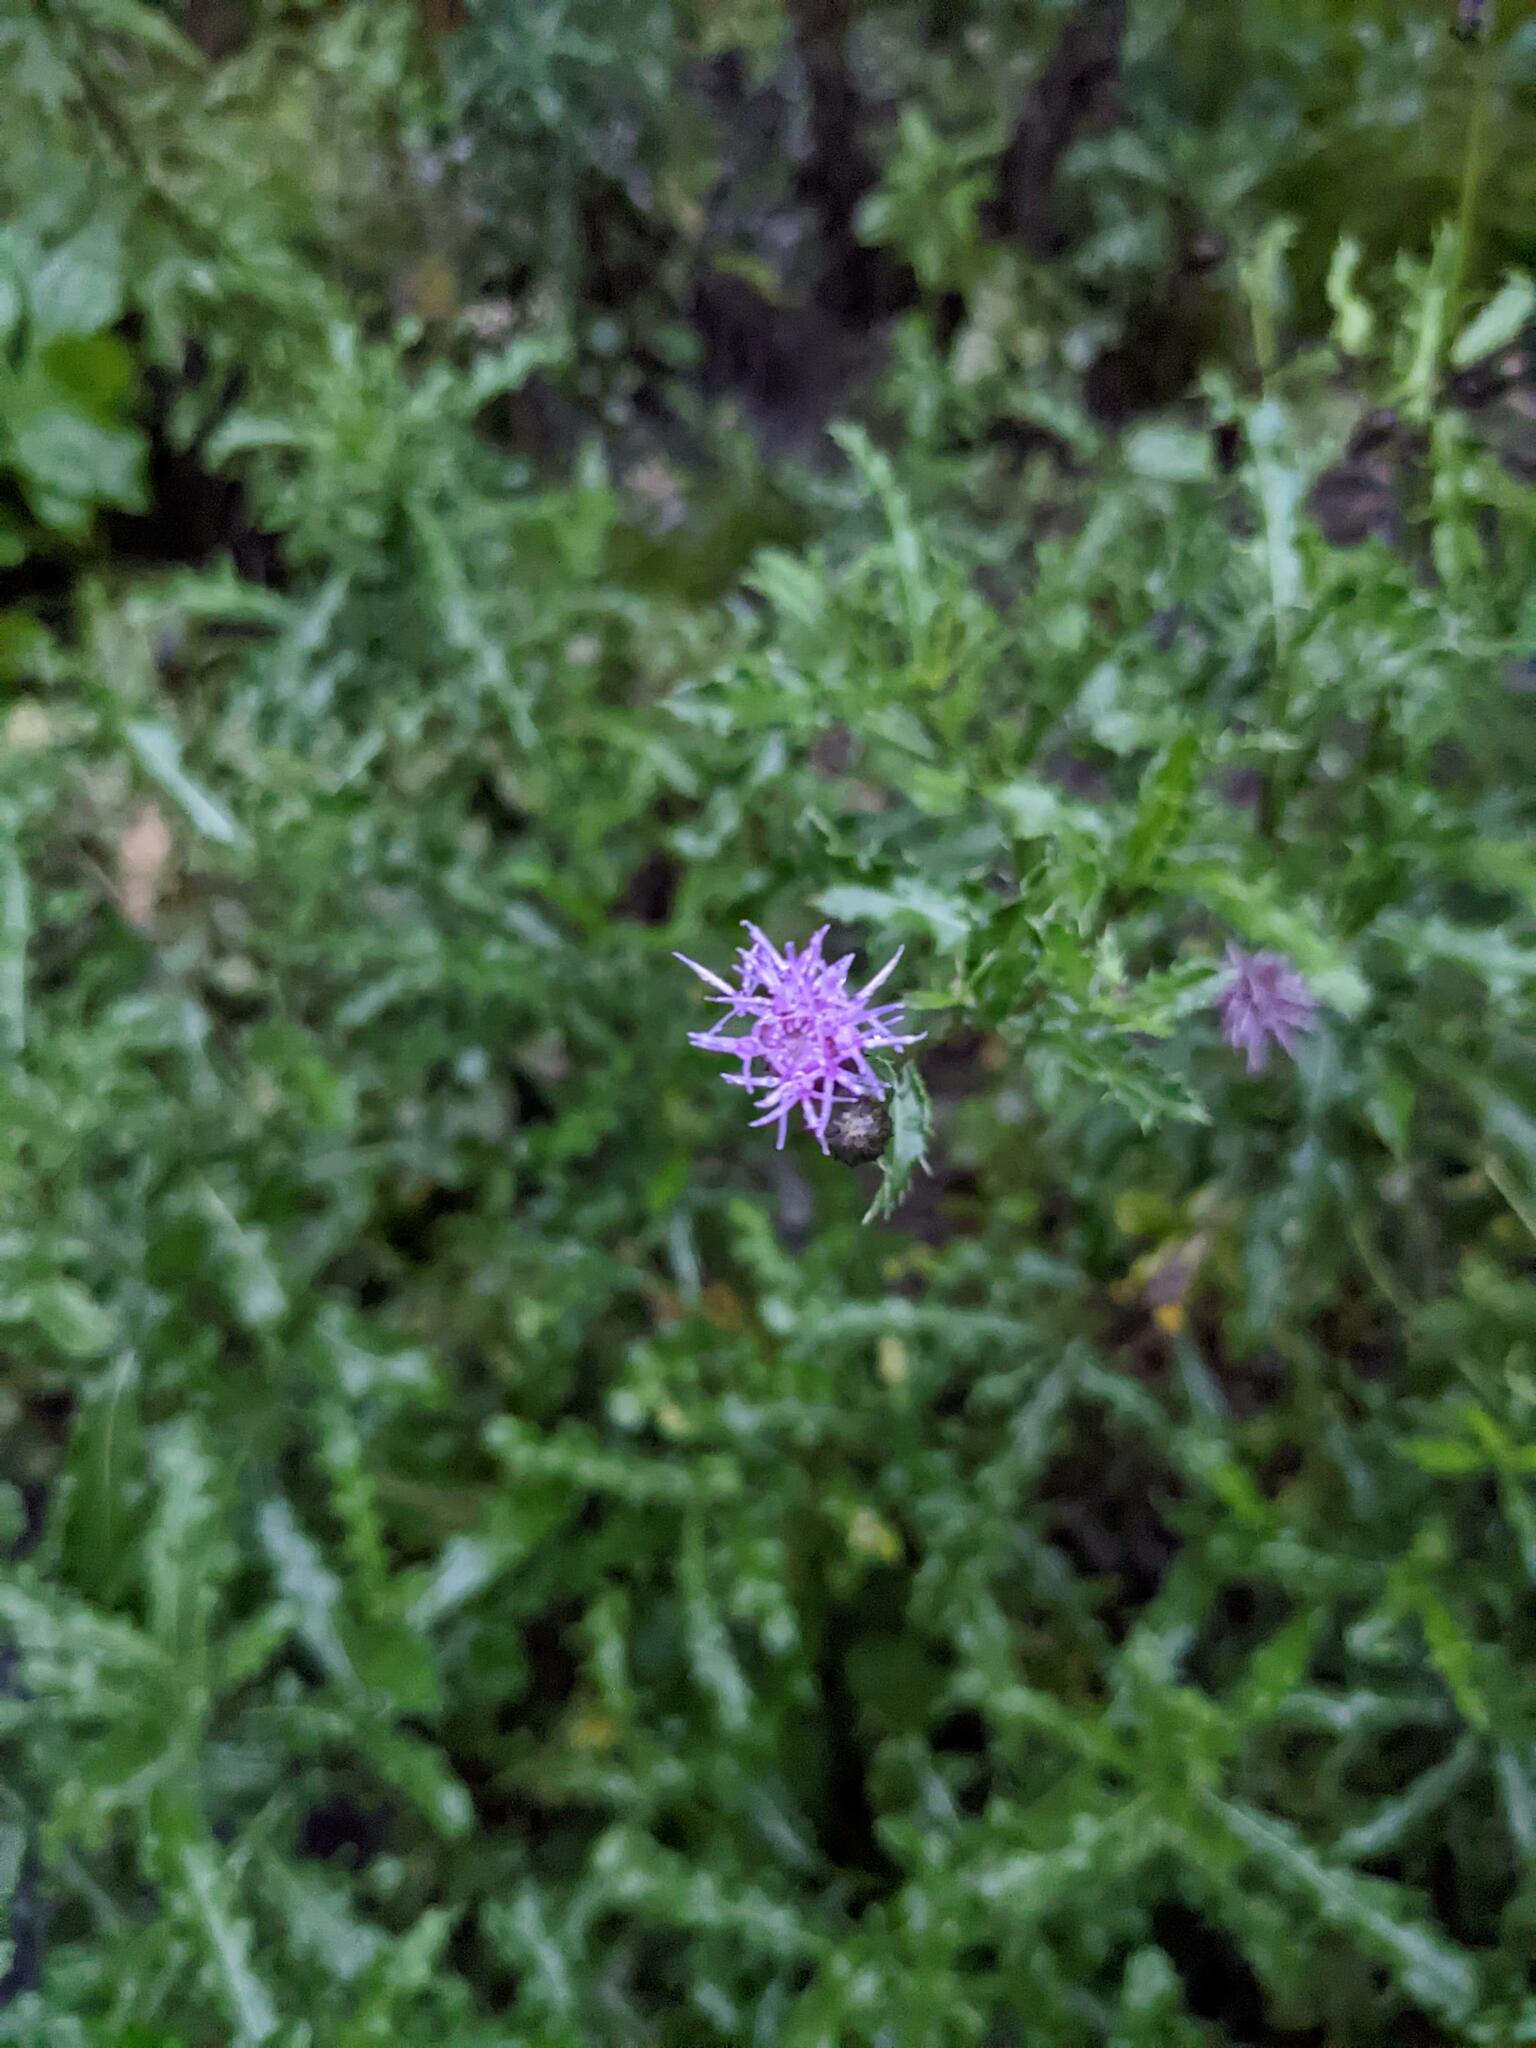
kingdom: Plantae
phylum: Tracheophyta
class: Magnoliopsida
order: Asterales
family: Asteraceae
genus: Cirsium
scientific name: Cirsium arvense
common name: Creeping thistle
